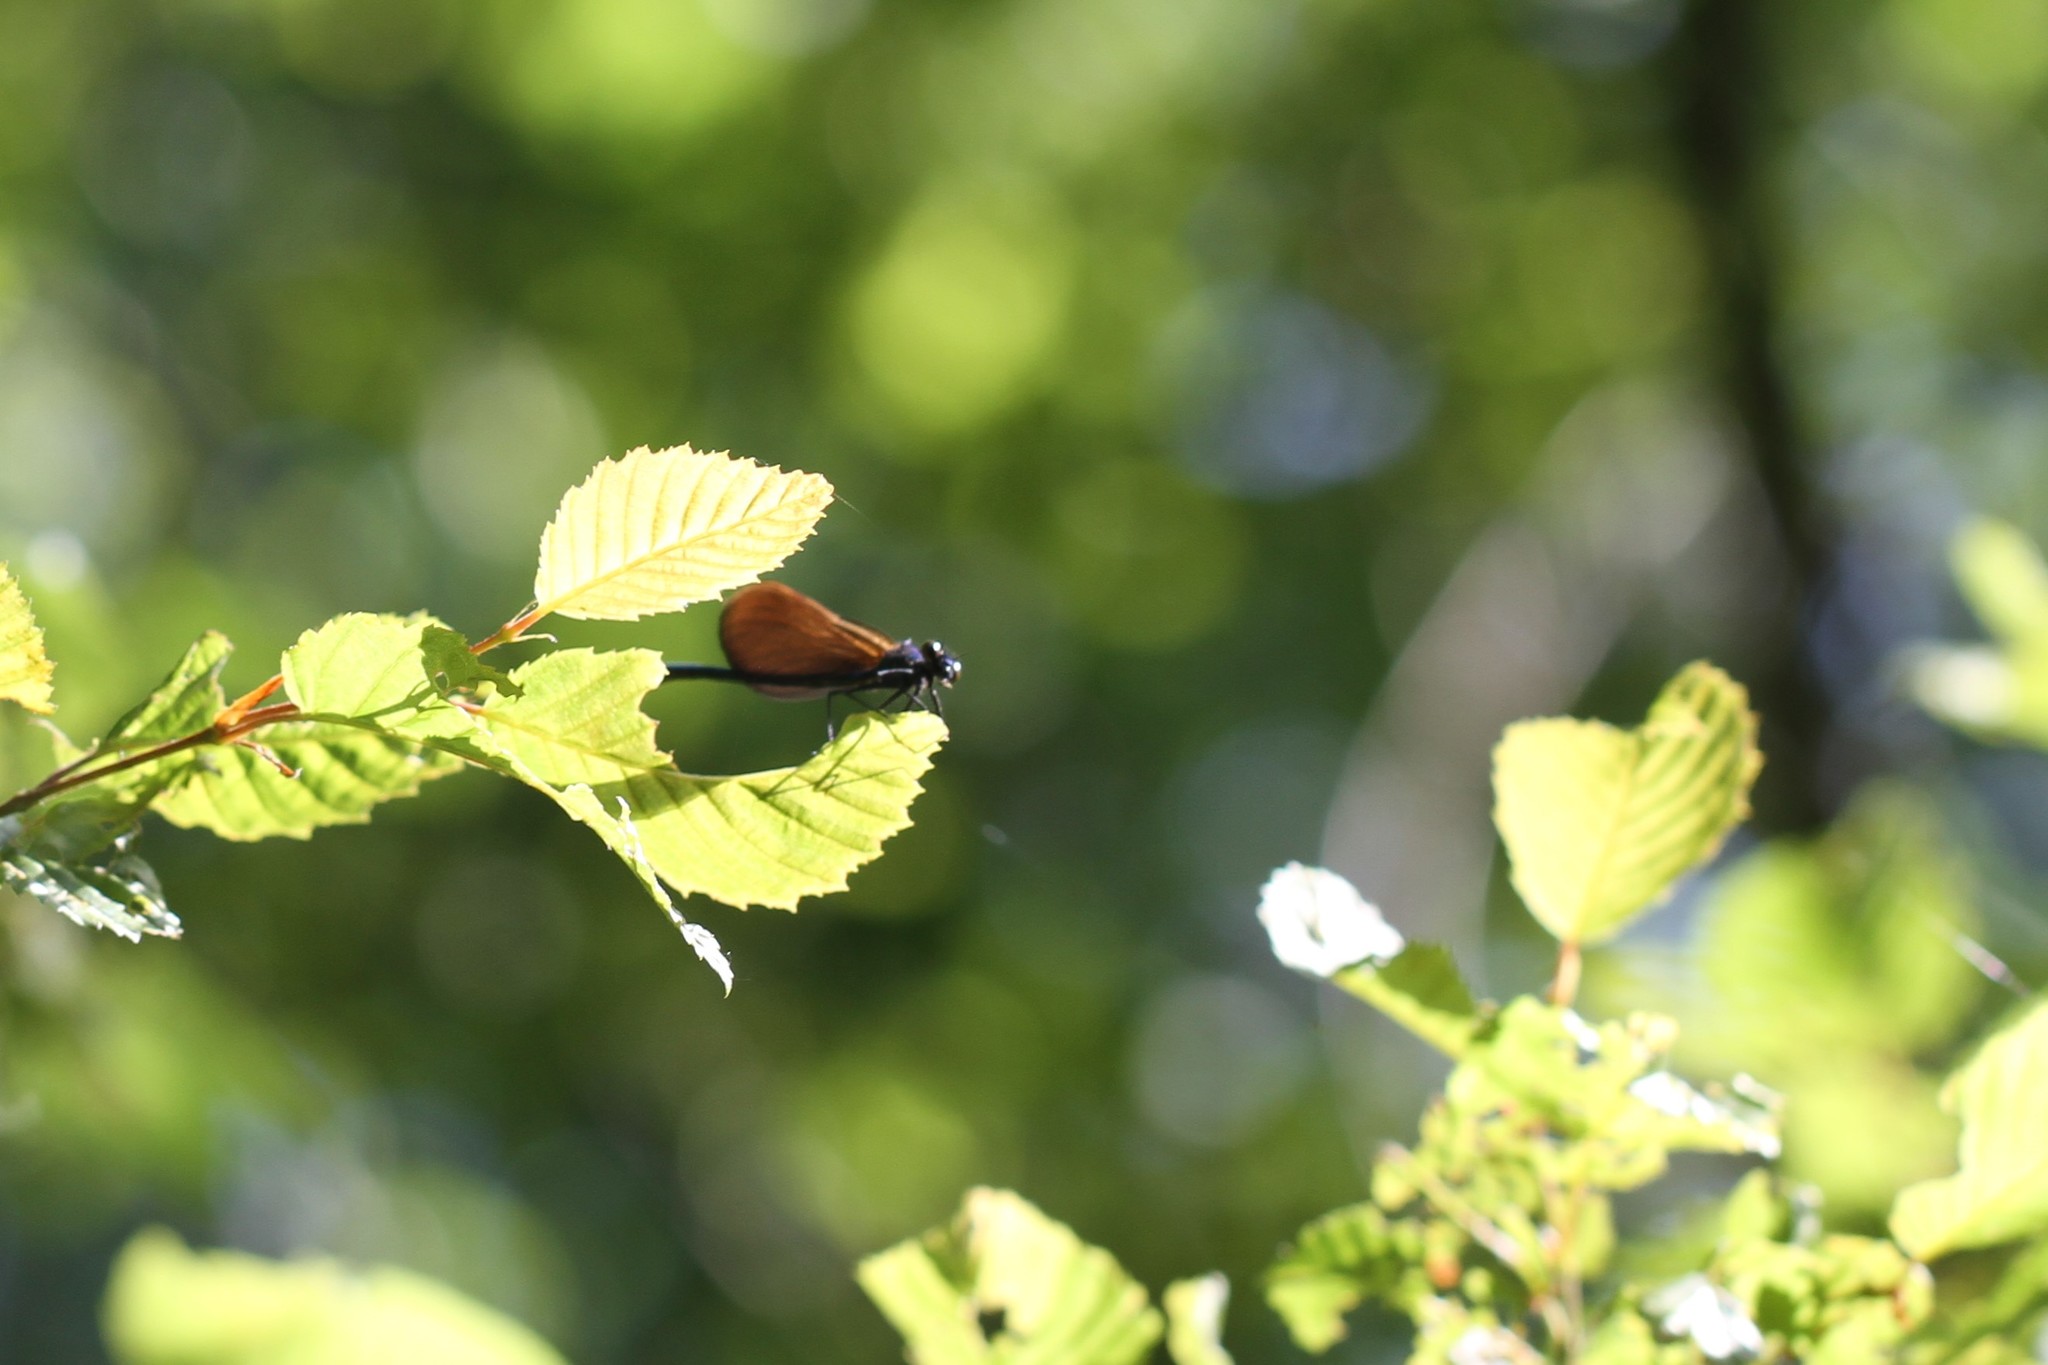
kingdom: Animalia
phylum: Arthropoda
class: Insecta
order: Odonata
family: Calopterygidae
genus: Calopteryx
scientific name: Calopteryx virgo
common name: Beautiful demoiselle
